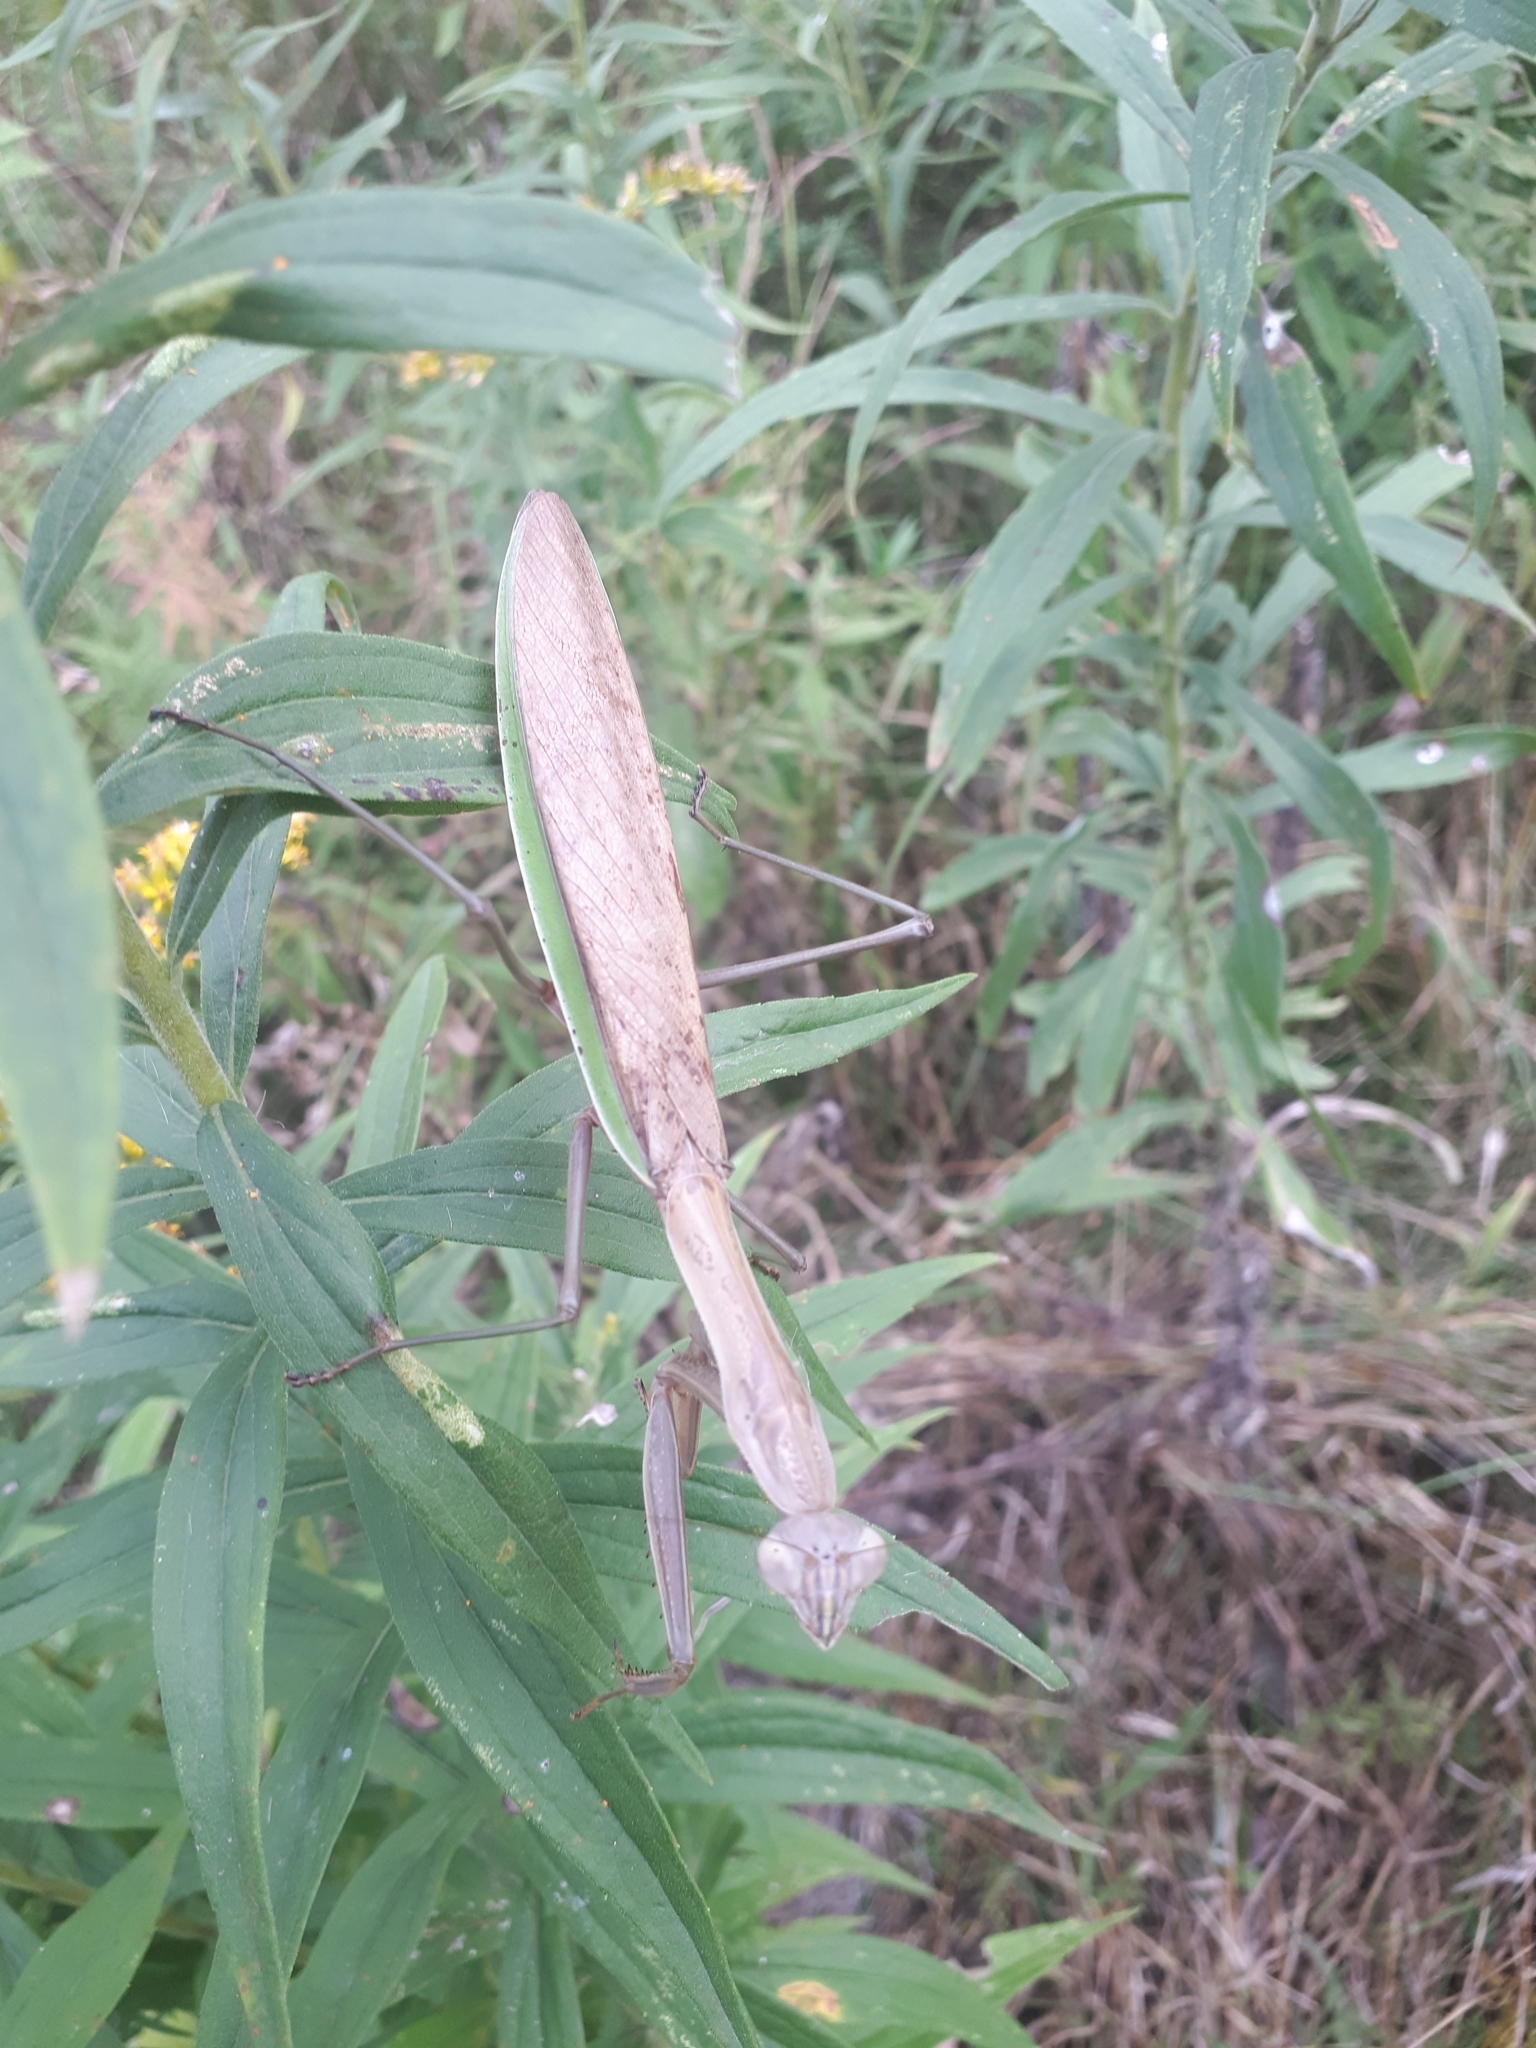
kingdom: Animalia
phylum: Arthropoda
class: Insecta
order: Mantodea
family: Mantidae
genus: Tenodera
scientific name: Tenodera sinensis
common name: Chinese mantis
